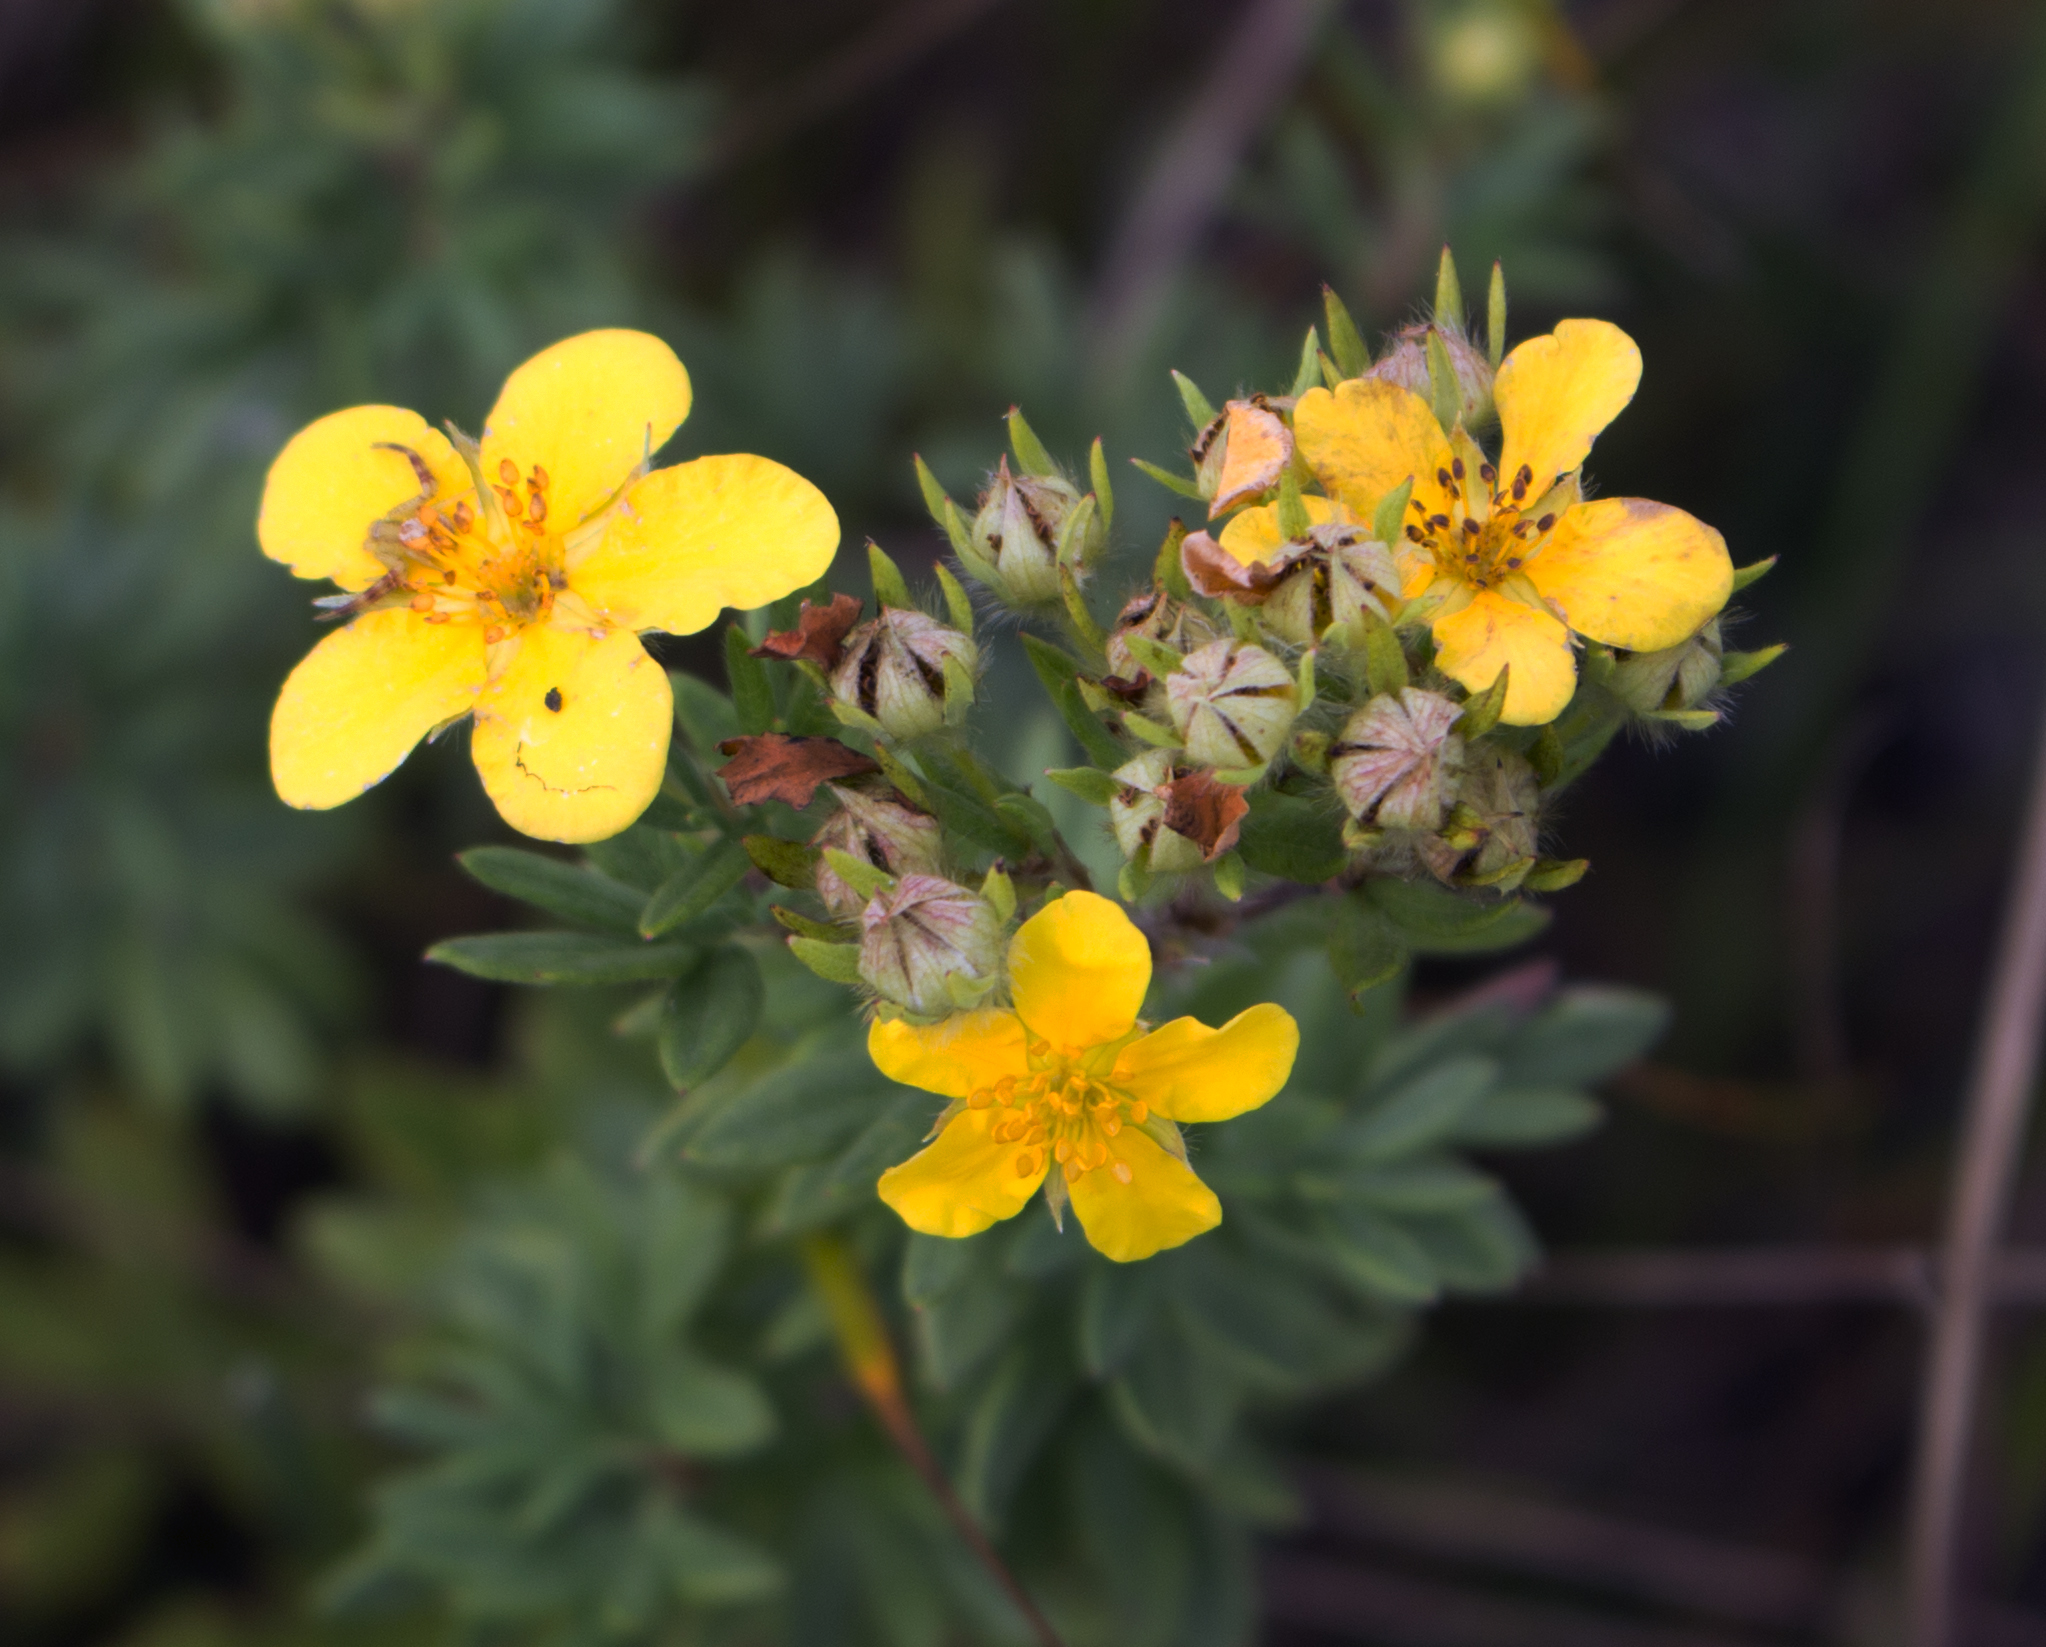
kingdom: Plantae
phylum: Tracheophyta
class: Magnoliopsida
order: Rosales
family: Rosaceae
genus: Dasiphora
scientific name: Dasiphora fruticosa
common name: Shrubby cinquefoil
